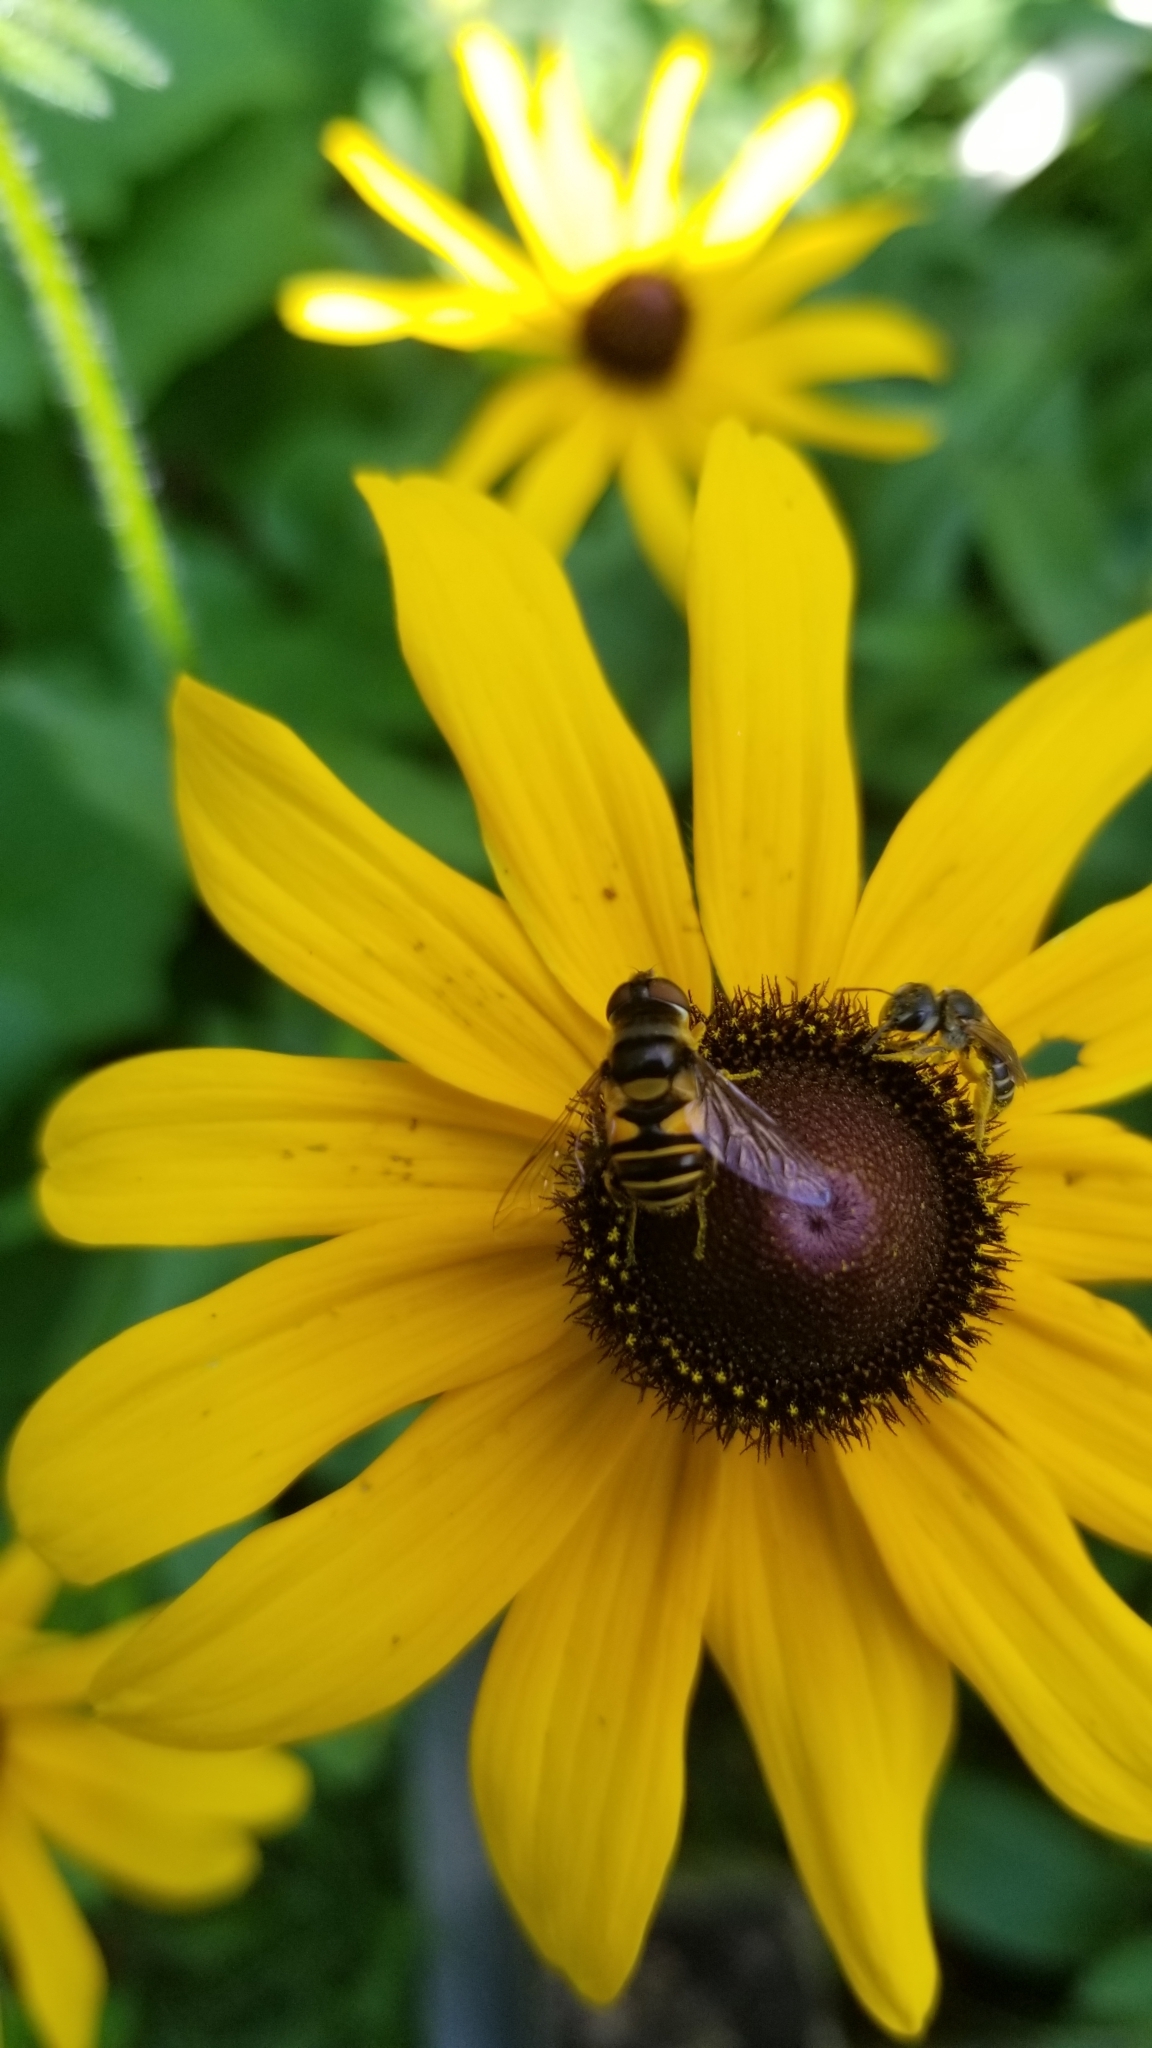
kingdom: Animalia
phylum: Arthropoda
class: Insecta
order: Diptera
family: Syrphidae
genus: Eristalis
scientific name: Eristalis transversa
